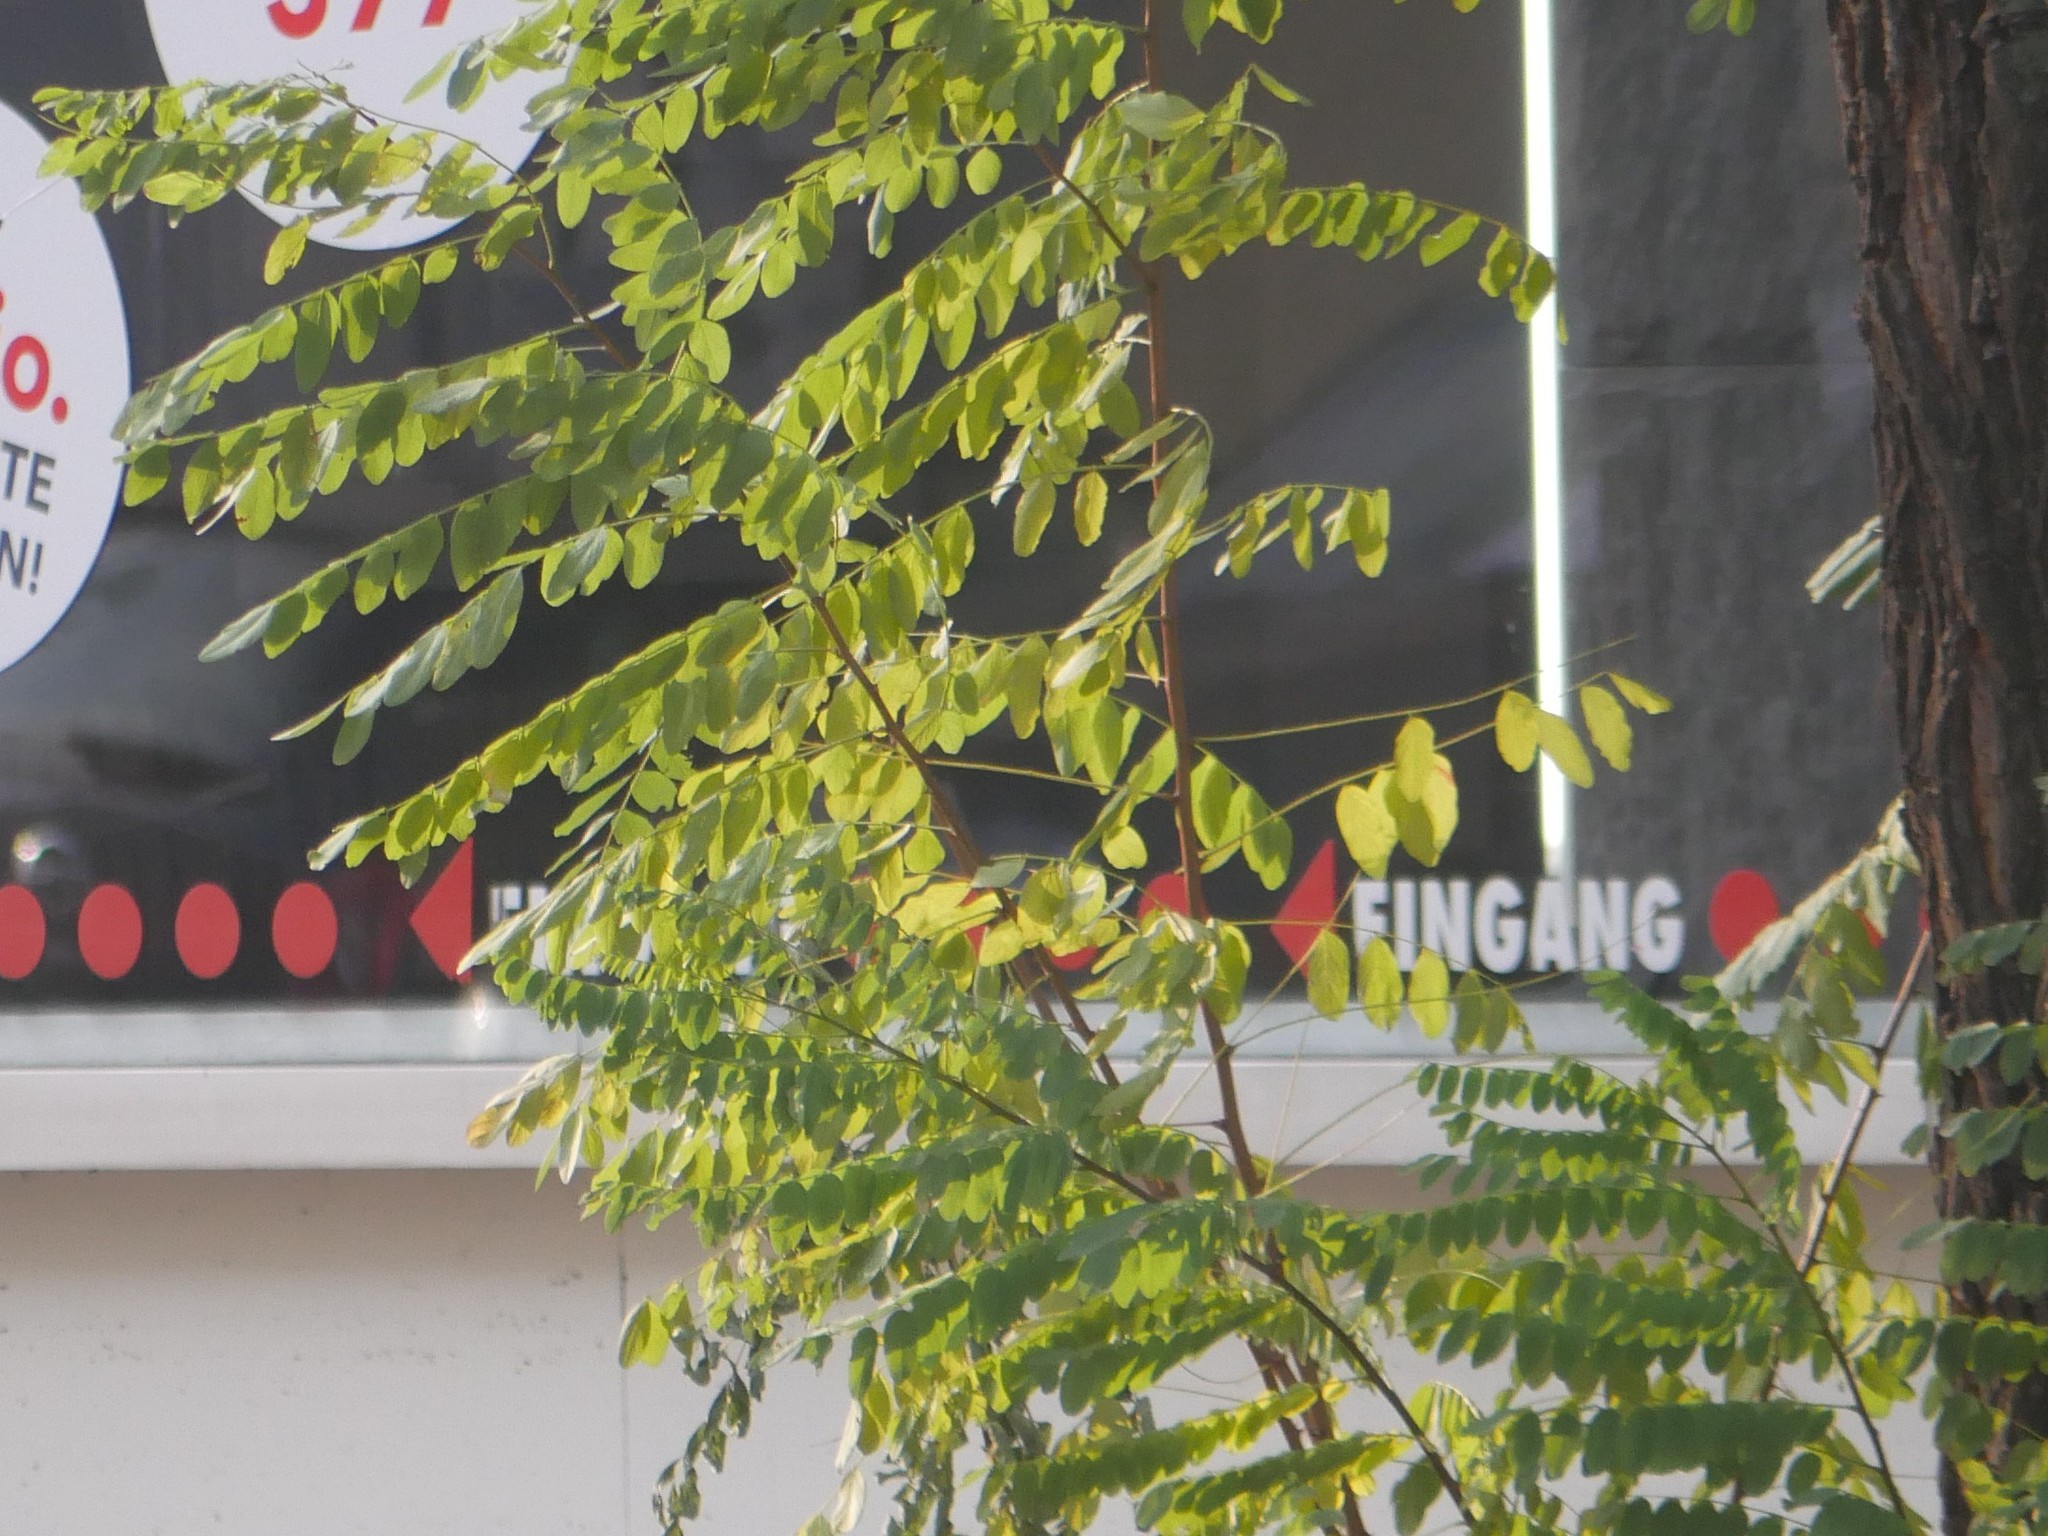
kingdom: Plantae
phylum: Tracheophyta
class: Magnoliopsida
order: Fabales
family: Fabaceae
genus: Robinia
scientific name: Robinia pseudoacacia
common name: Black locust
